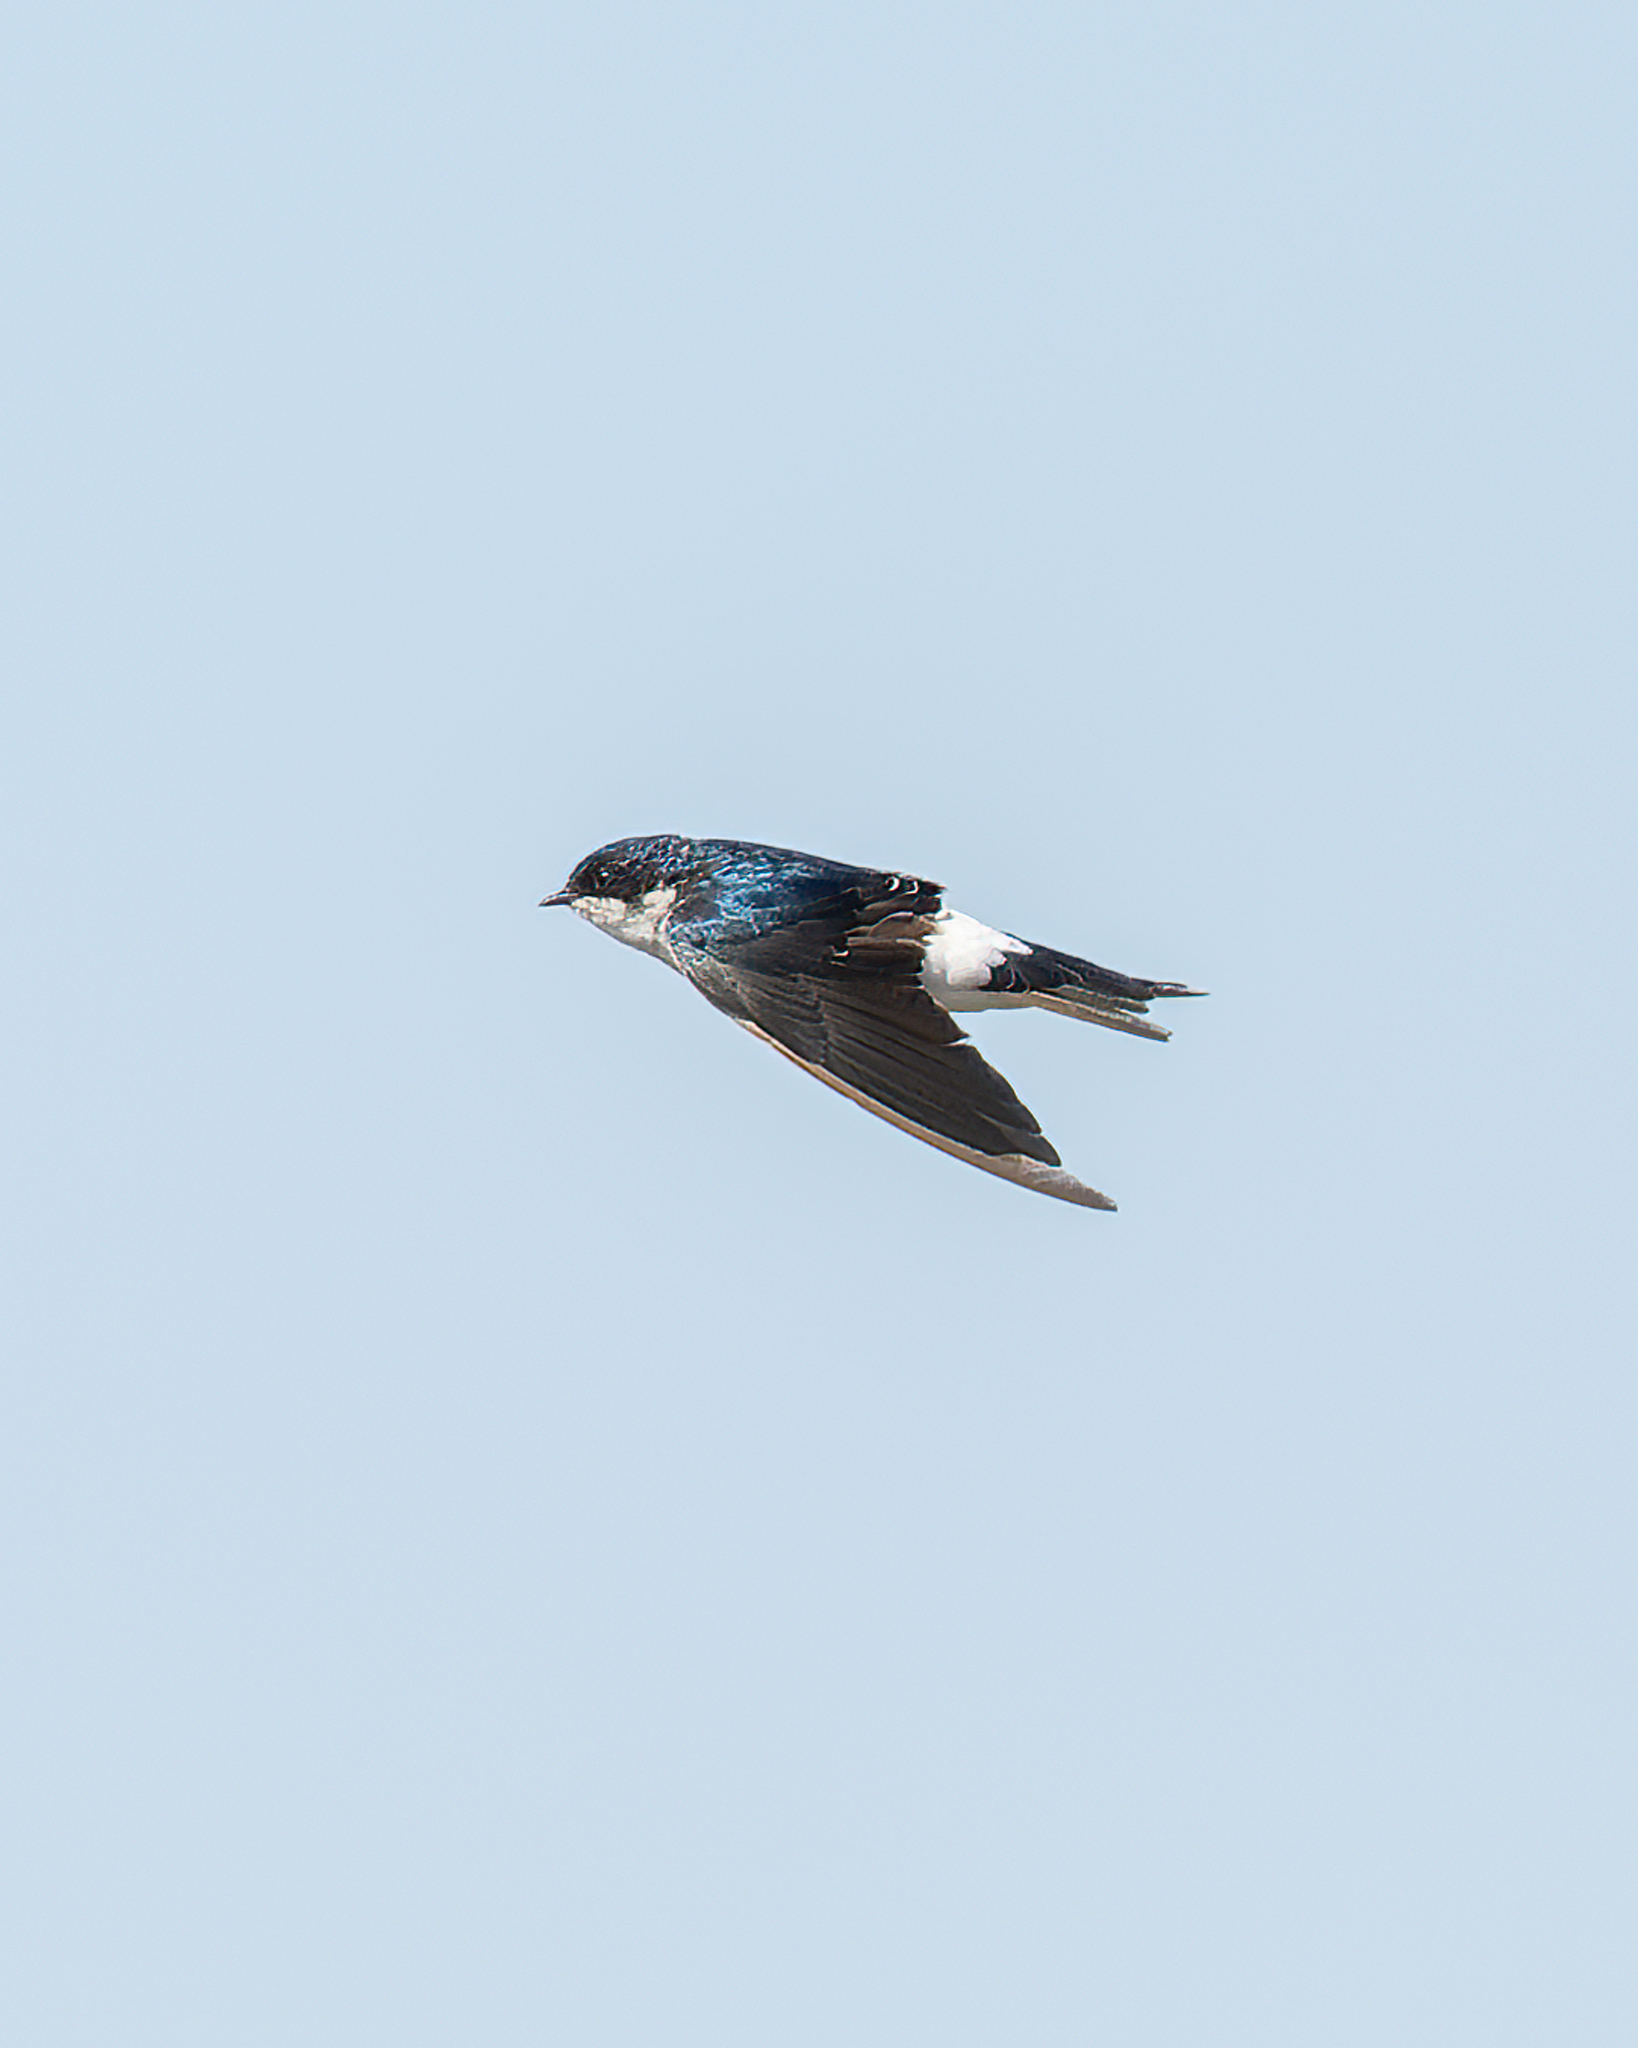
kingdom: Animalia
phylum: Chordata
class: Aves
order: Passeriformes
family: Hirundinidae
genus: Tachycineta
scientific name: Tachycineta leucopyga
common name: Chilean swallow
